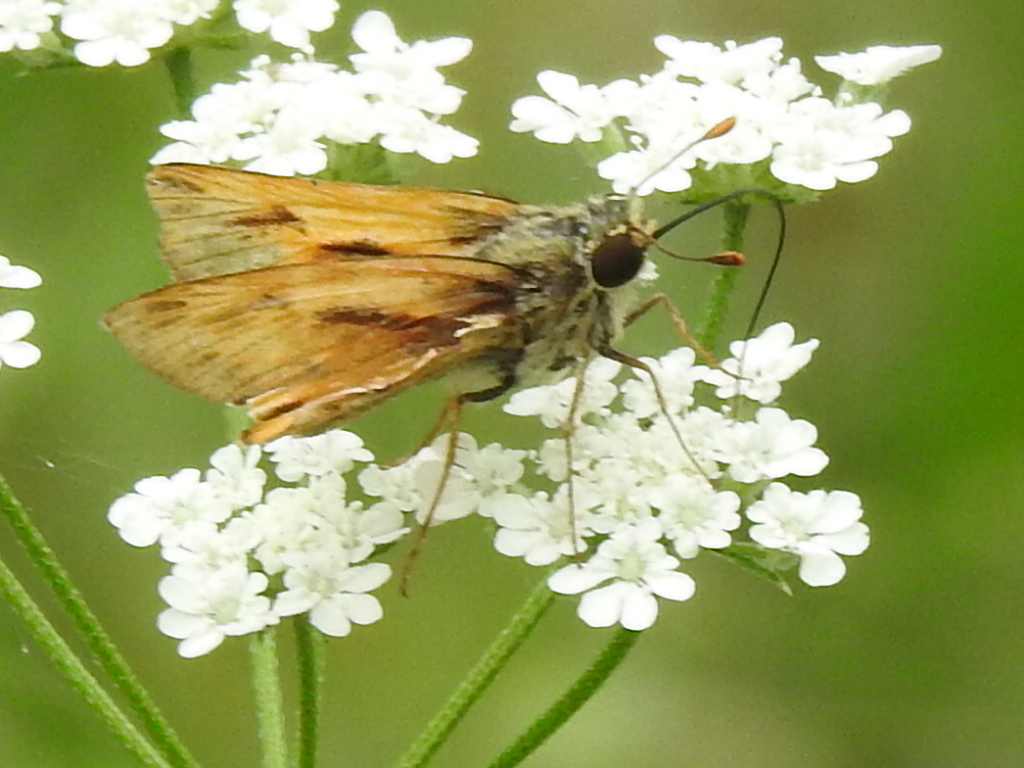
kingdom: Animalia
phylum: Arthropoda
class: Insecta
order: Lepidoptera
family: Hesperiidae
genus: Hylephila
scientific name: Hylephila phyleus
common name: Fiery skipper
